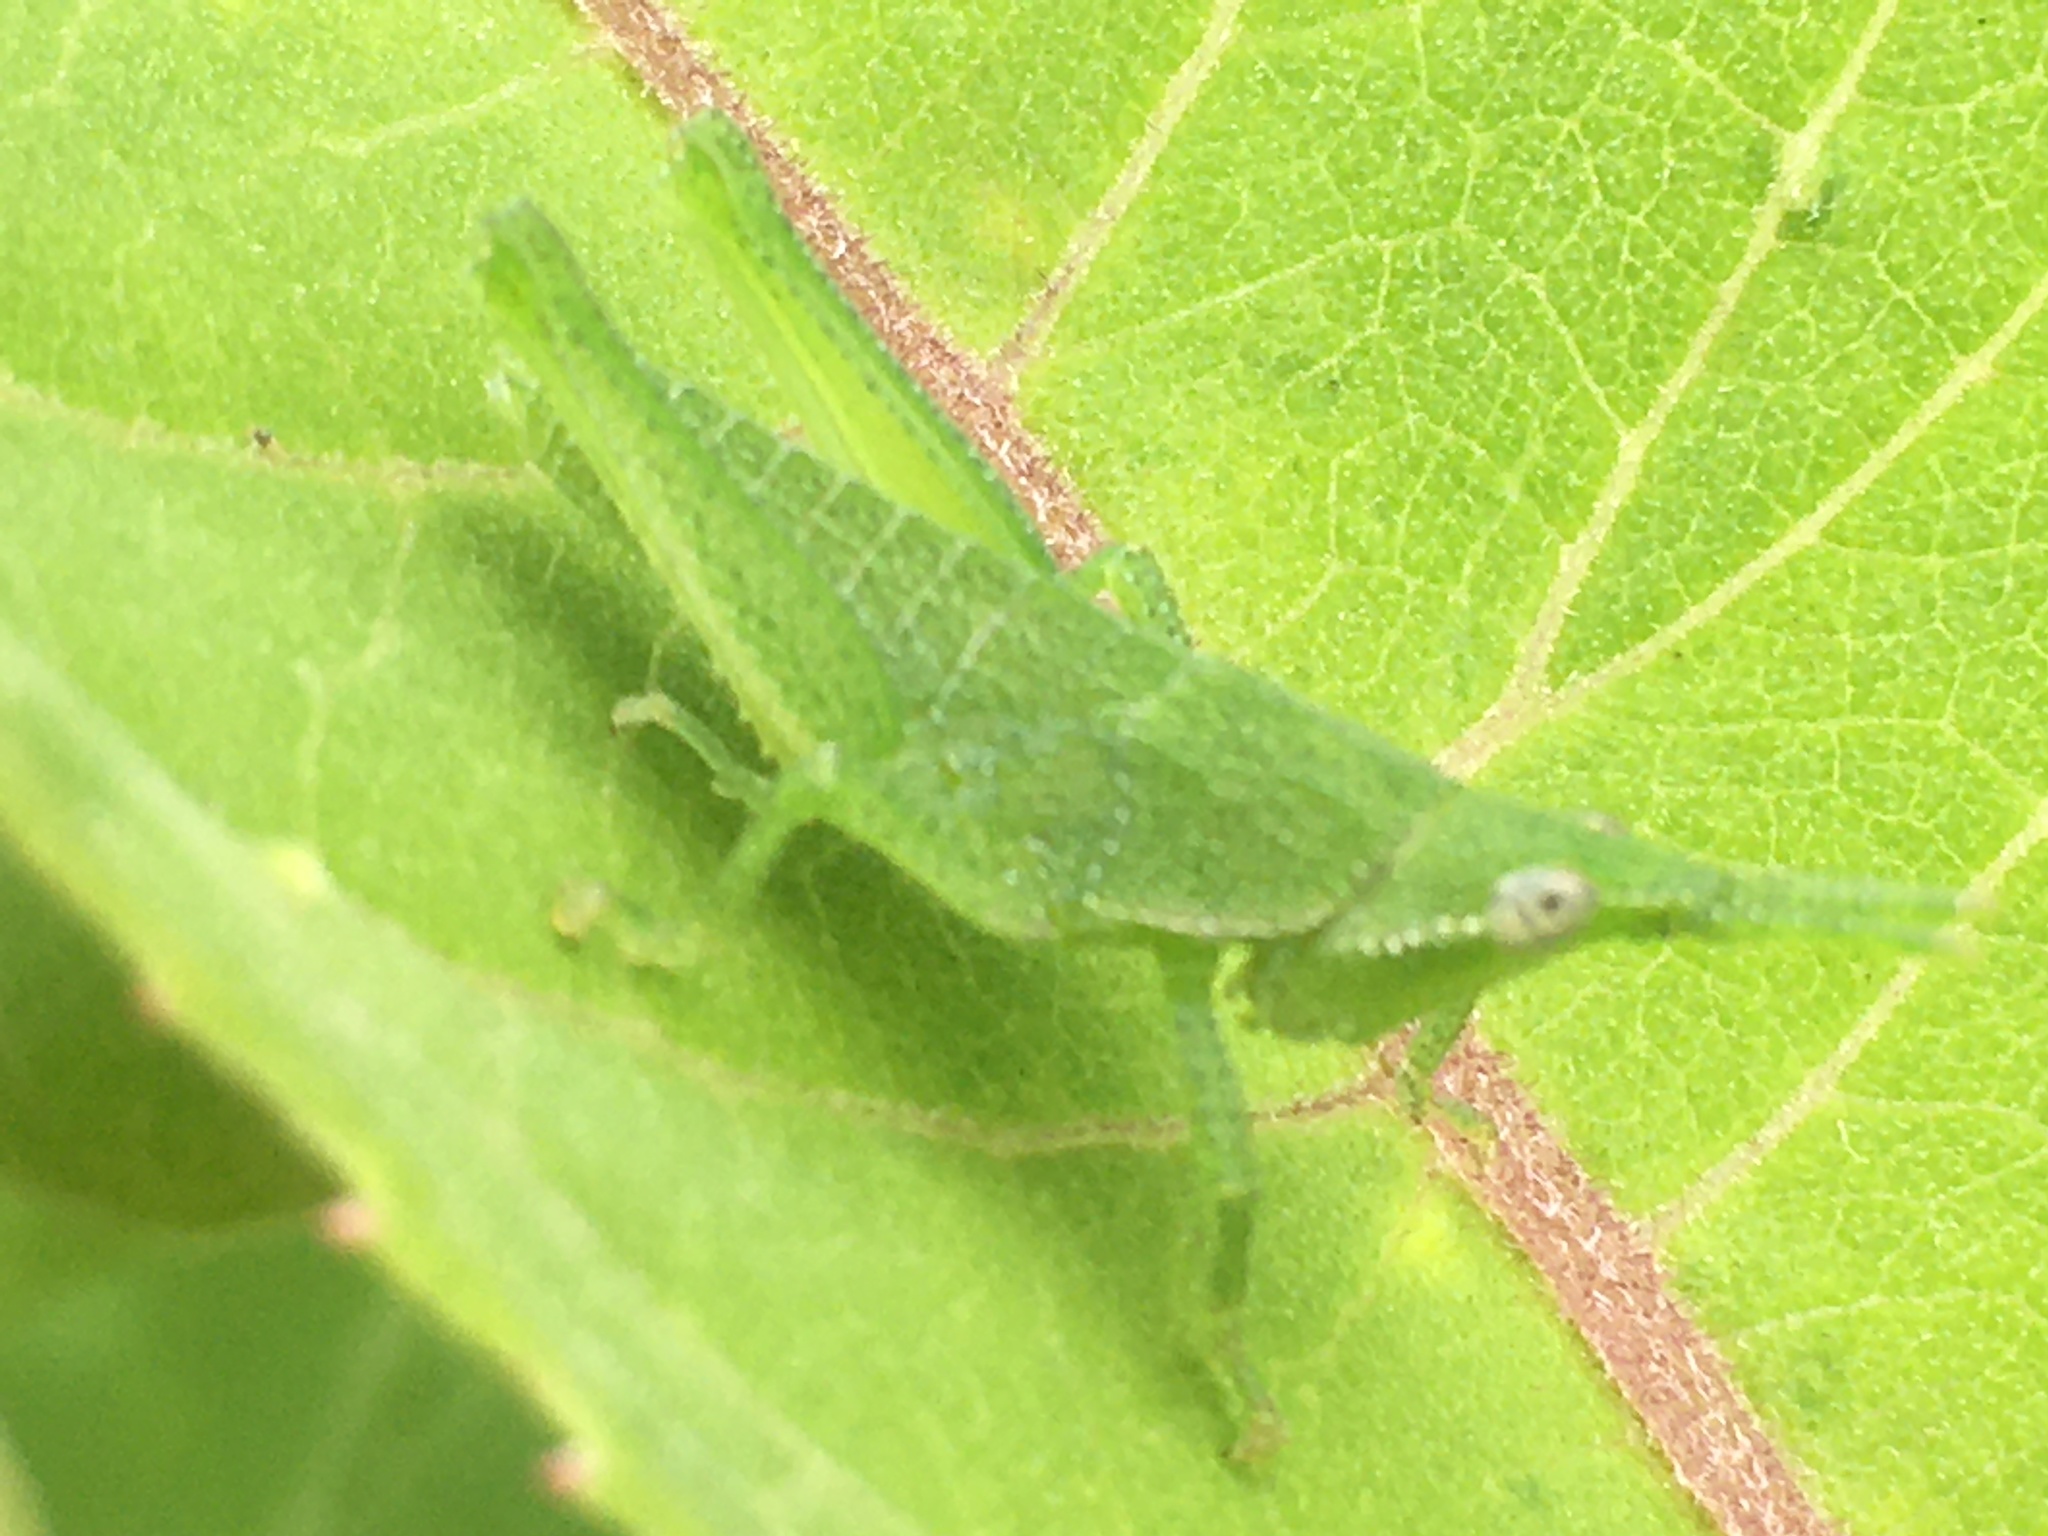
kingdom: Animalia
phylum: Arthropoda
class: Insecta
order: Orthoptera
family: Pyrgomorphidae
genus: Prosphena
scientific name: Prosphena scudderi
